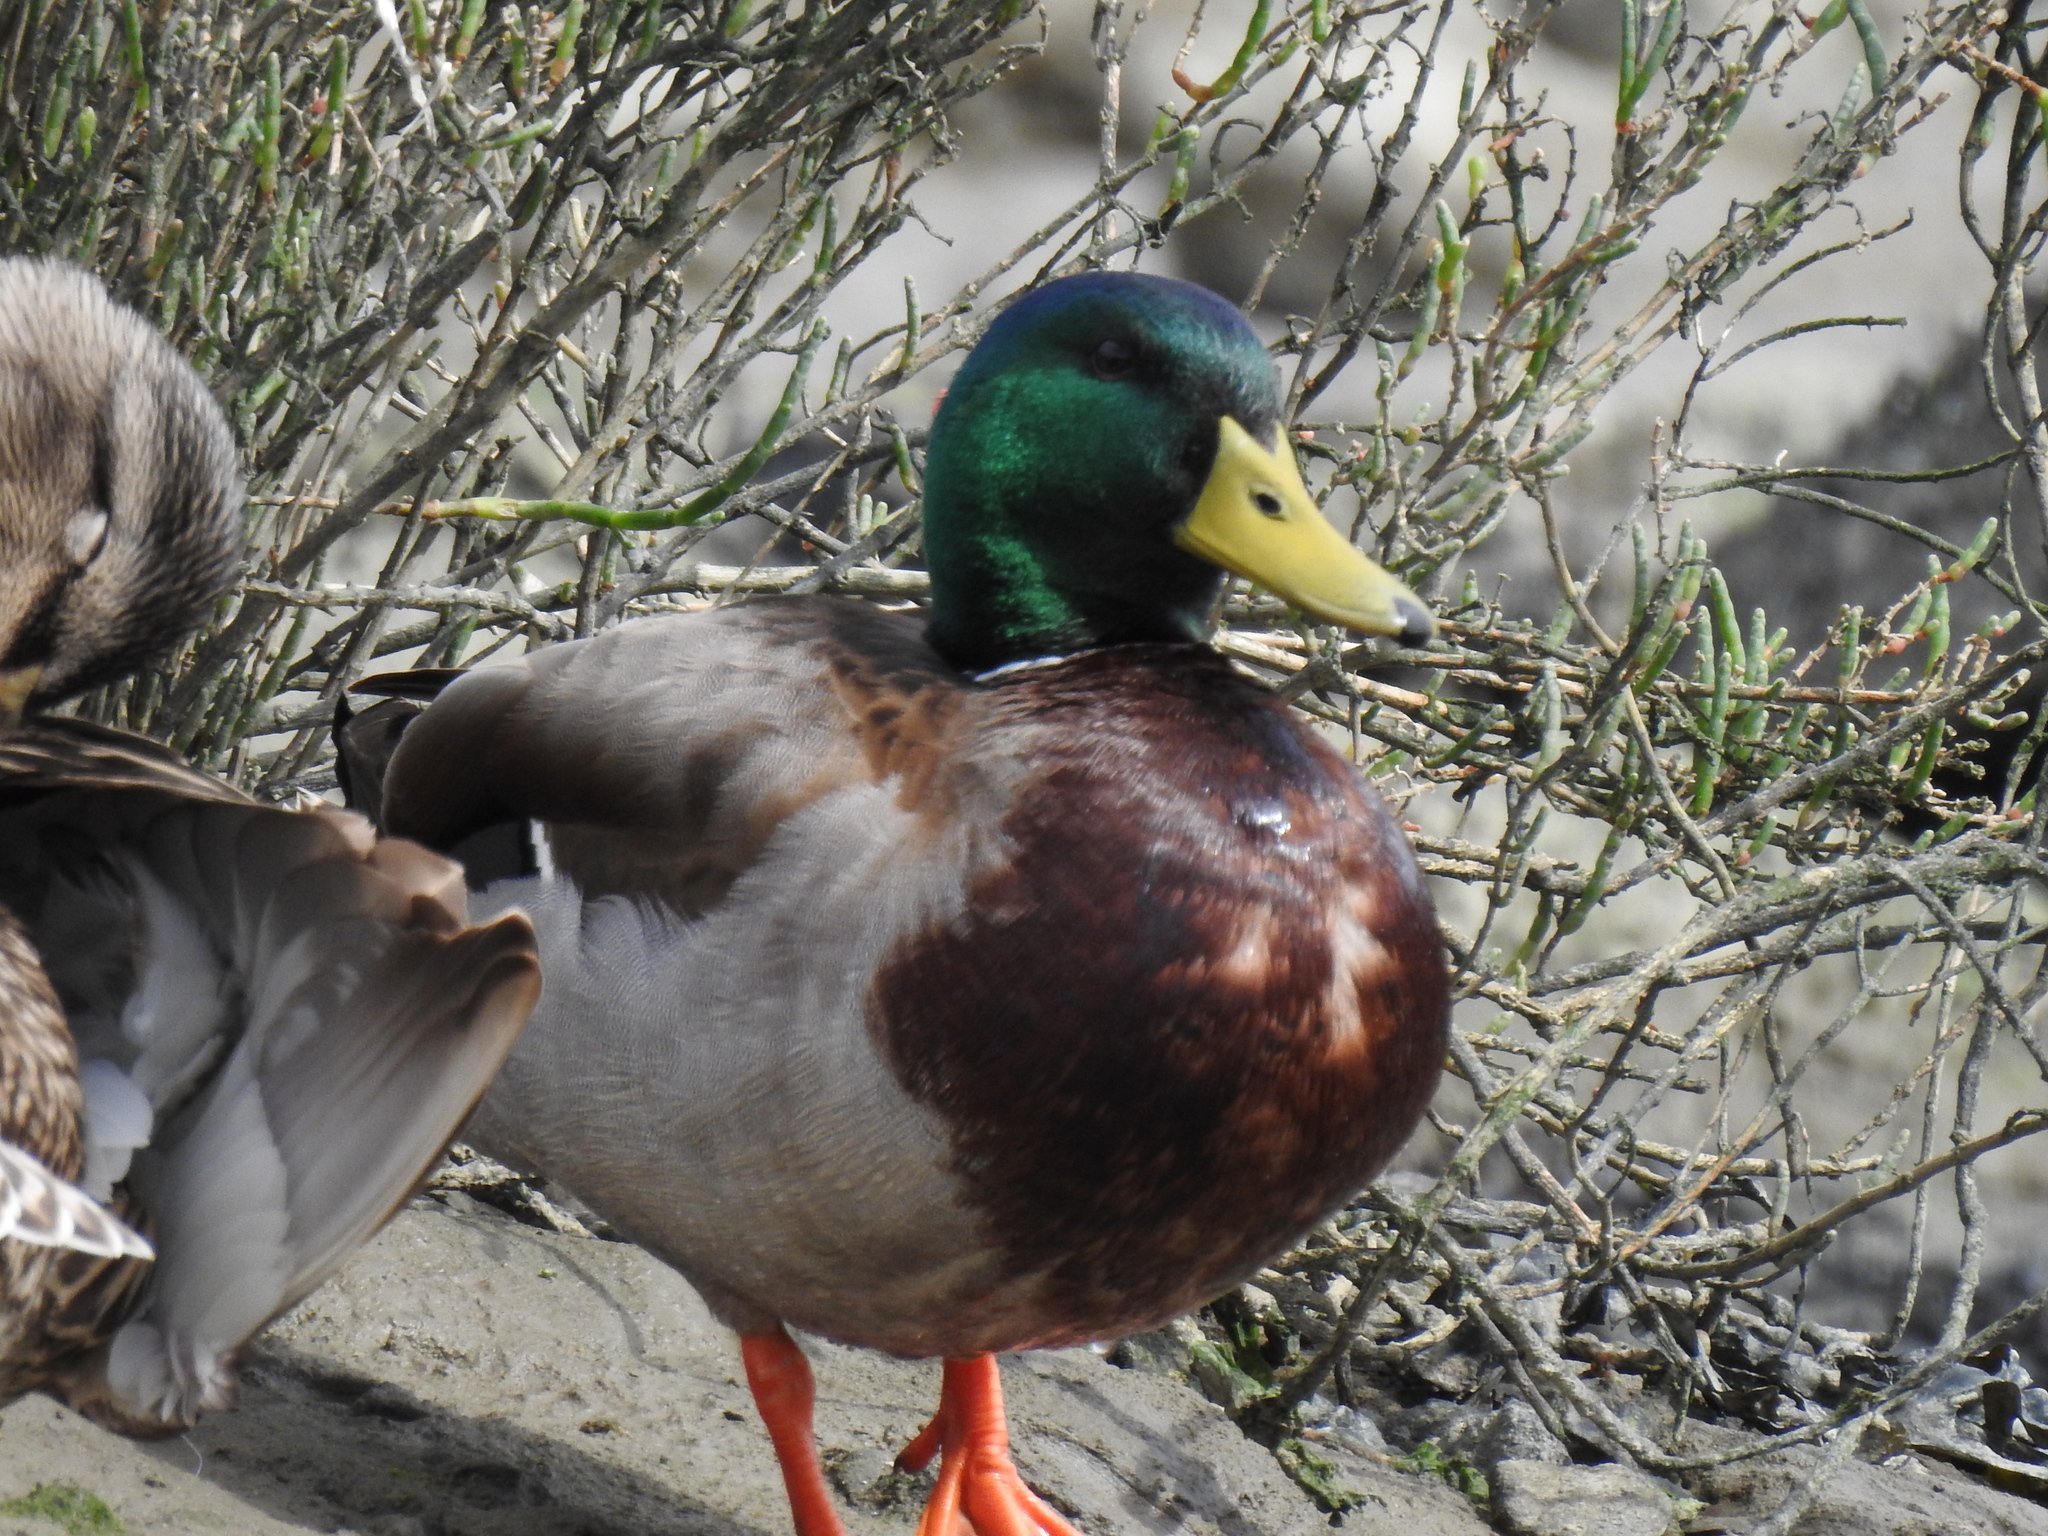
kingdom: Animalia
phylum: Chordata
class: Aves
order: Anseriformes
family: Anatidae
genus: Anas
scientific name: Anas platyrhynchos
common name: Mallard
